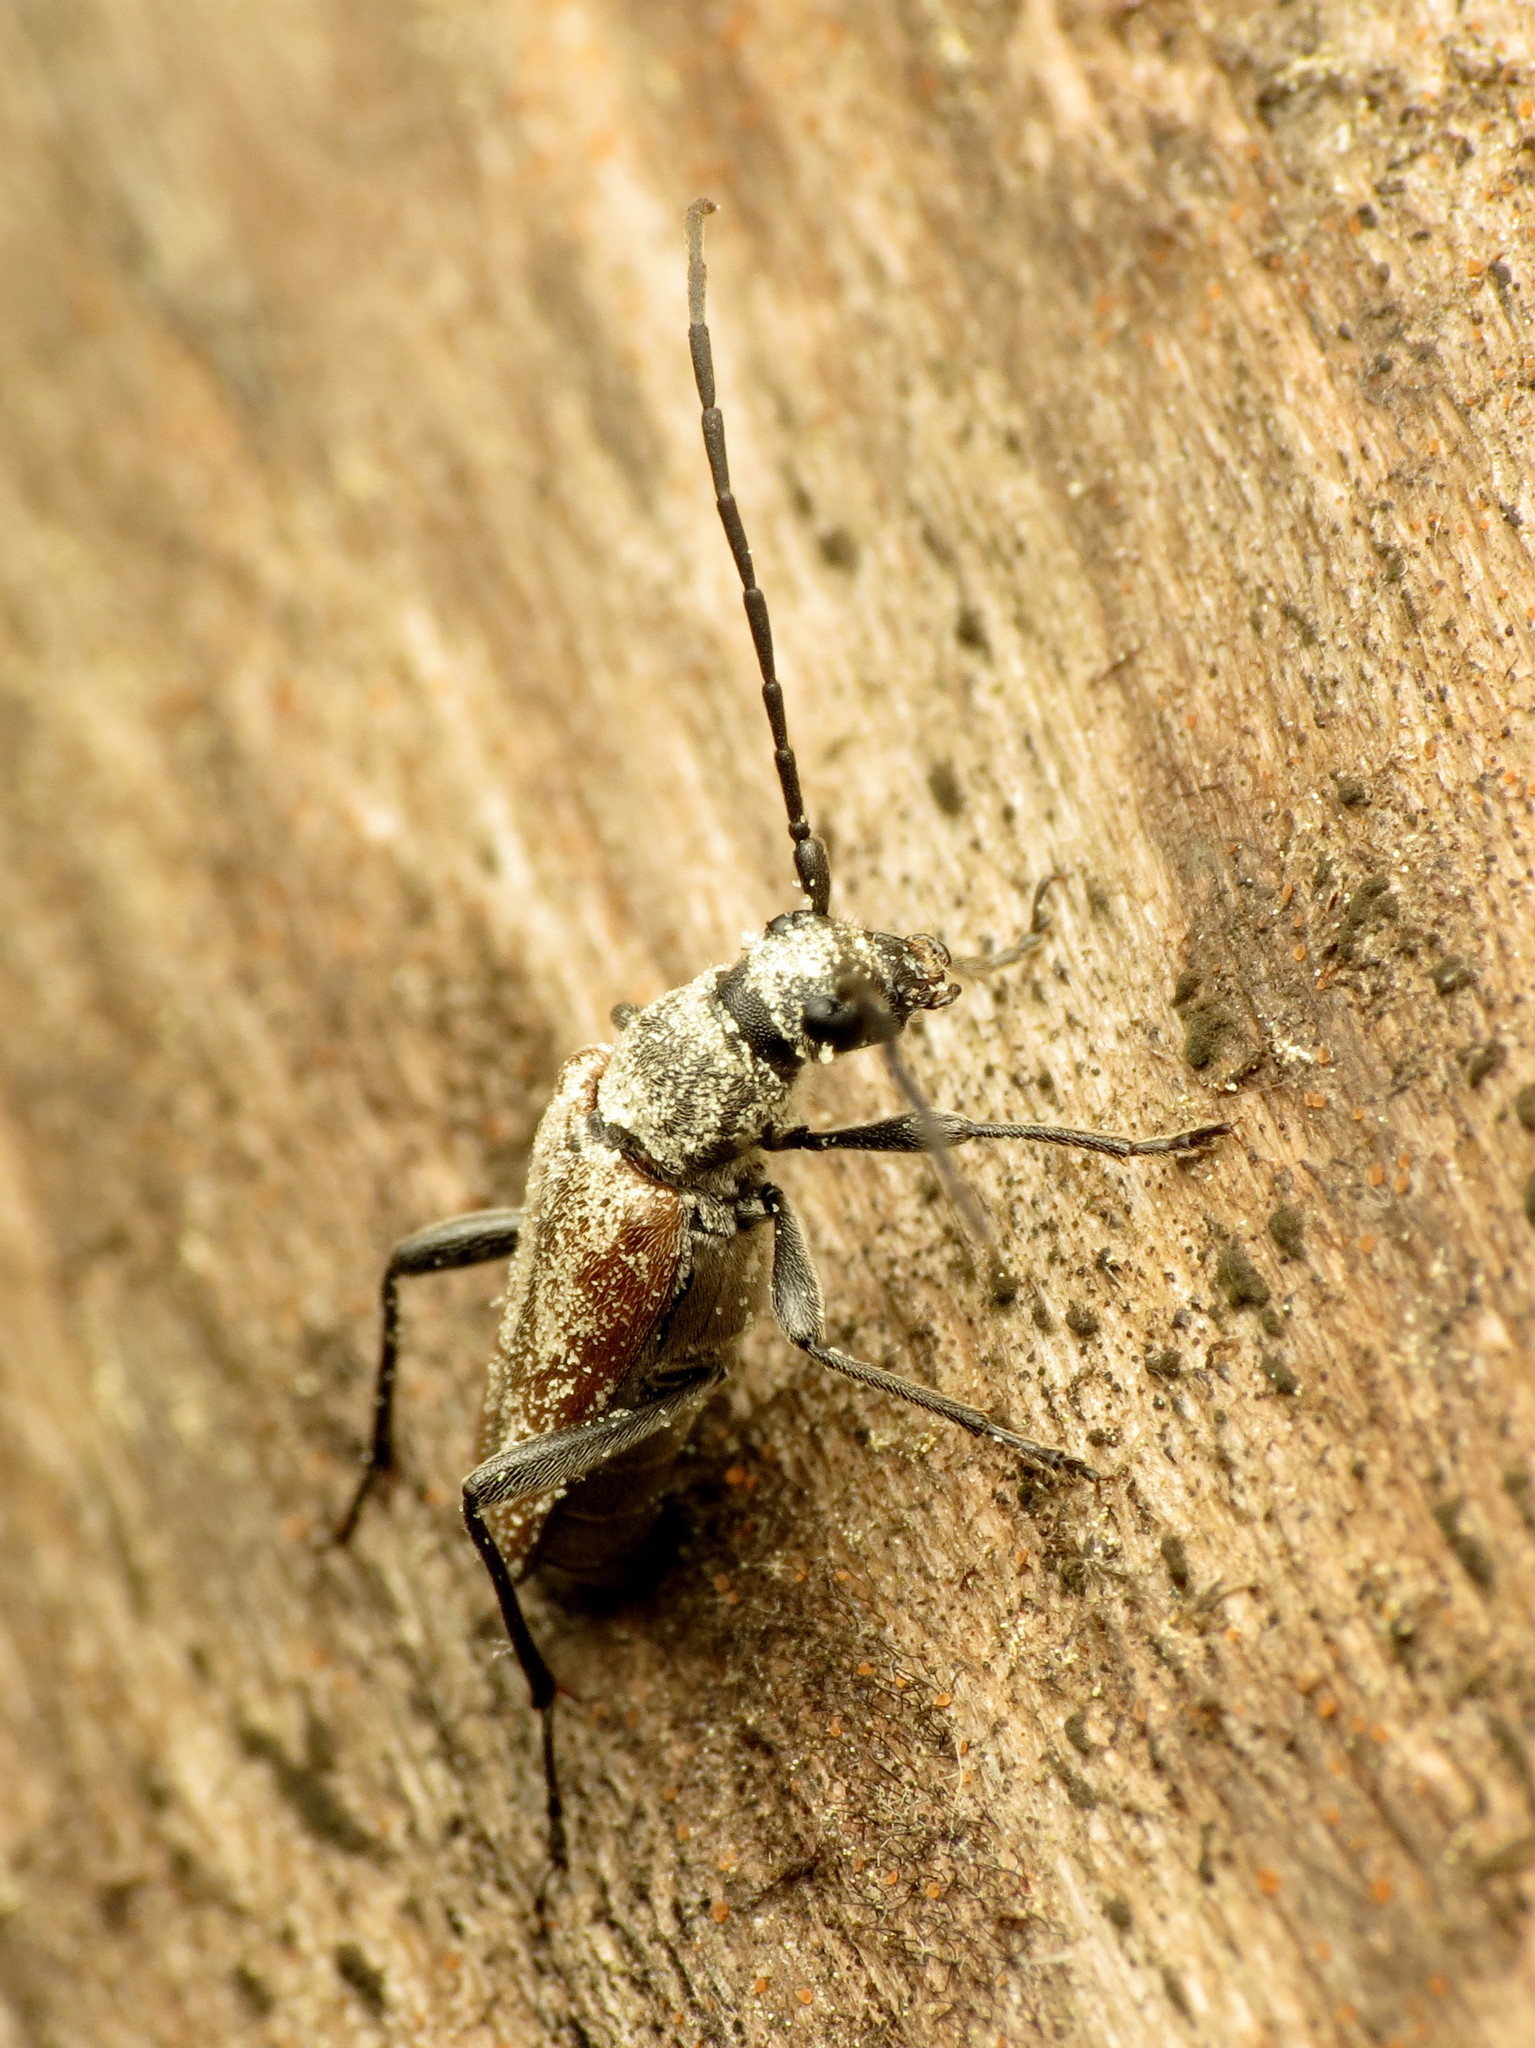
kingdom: Animalia
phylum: Arthropoda
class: Insecta
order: Coleoptera
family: Cerambycidae
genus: Trachysida
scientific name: Trachysida mutabilis
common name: Changeable flower longhorn
